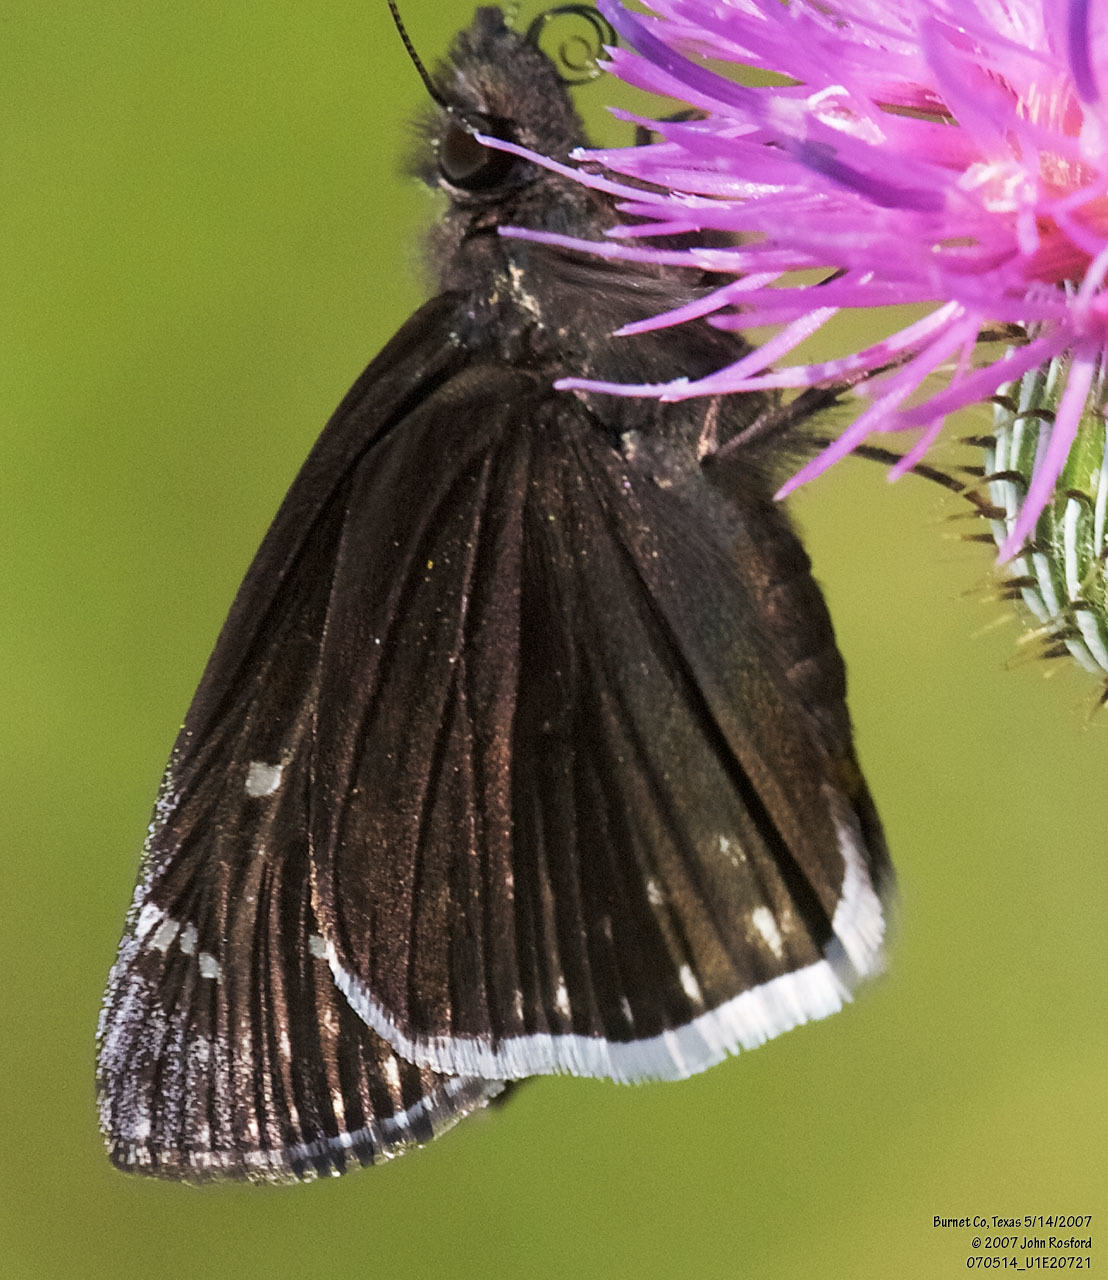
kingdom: Animalia
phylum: Arthropoda
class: Insecta
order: Lepidoptera
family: Hesperiidae
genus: Erynnis
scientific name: Erynnis funeralis
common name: Funereal duskywing
